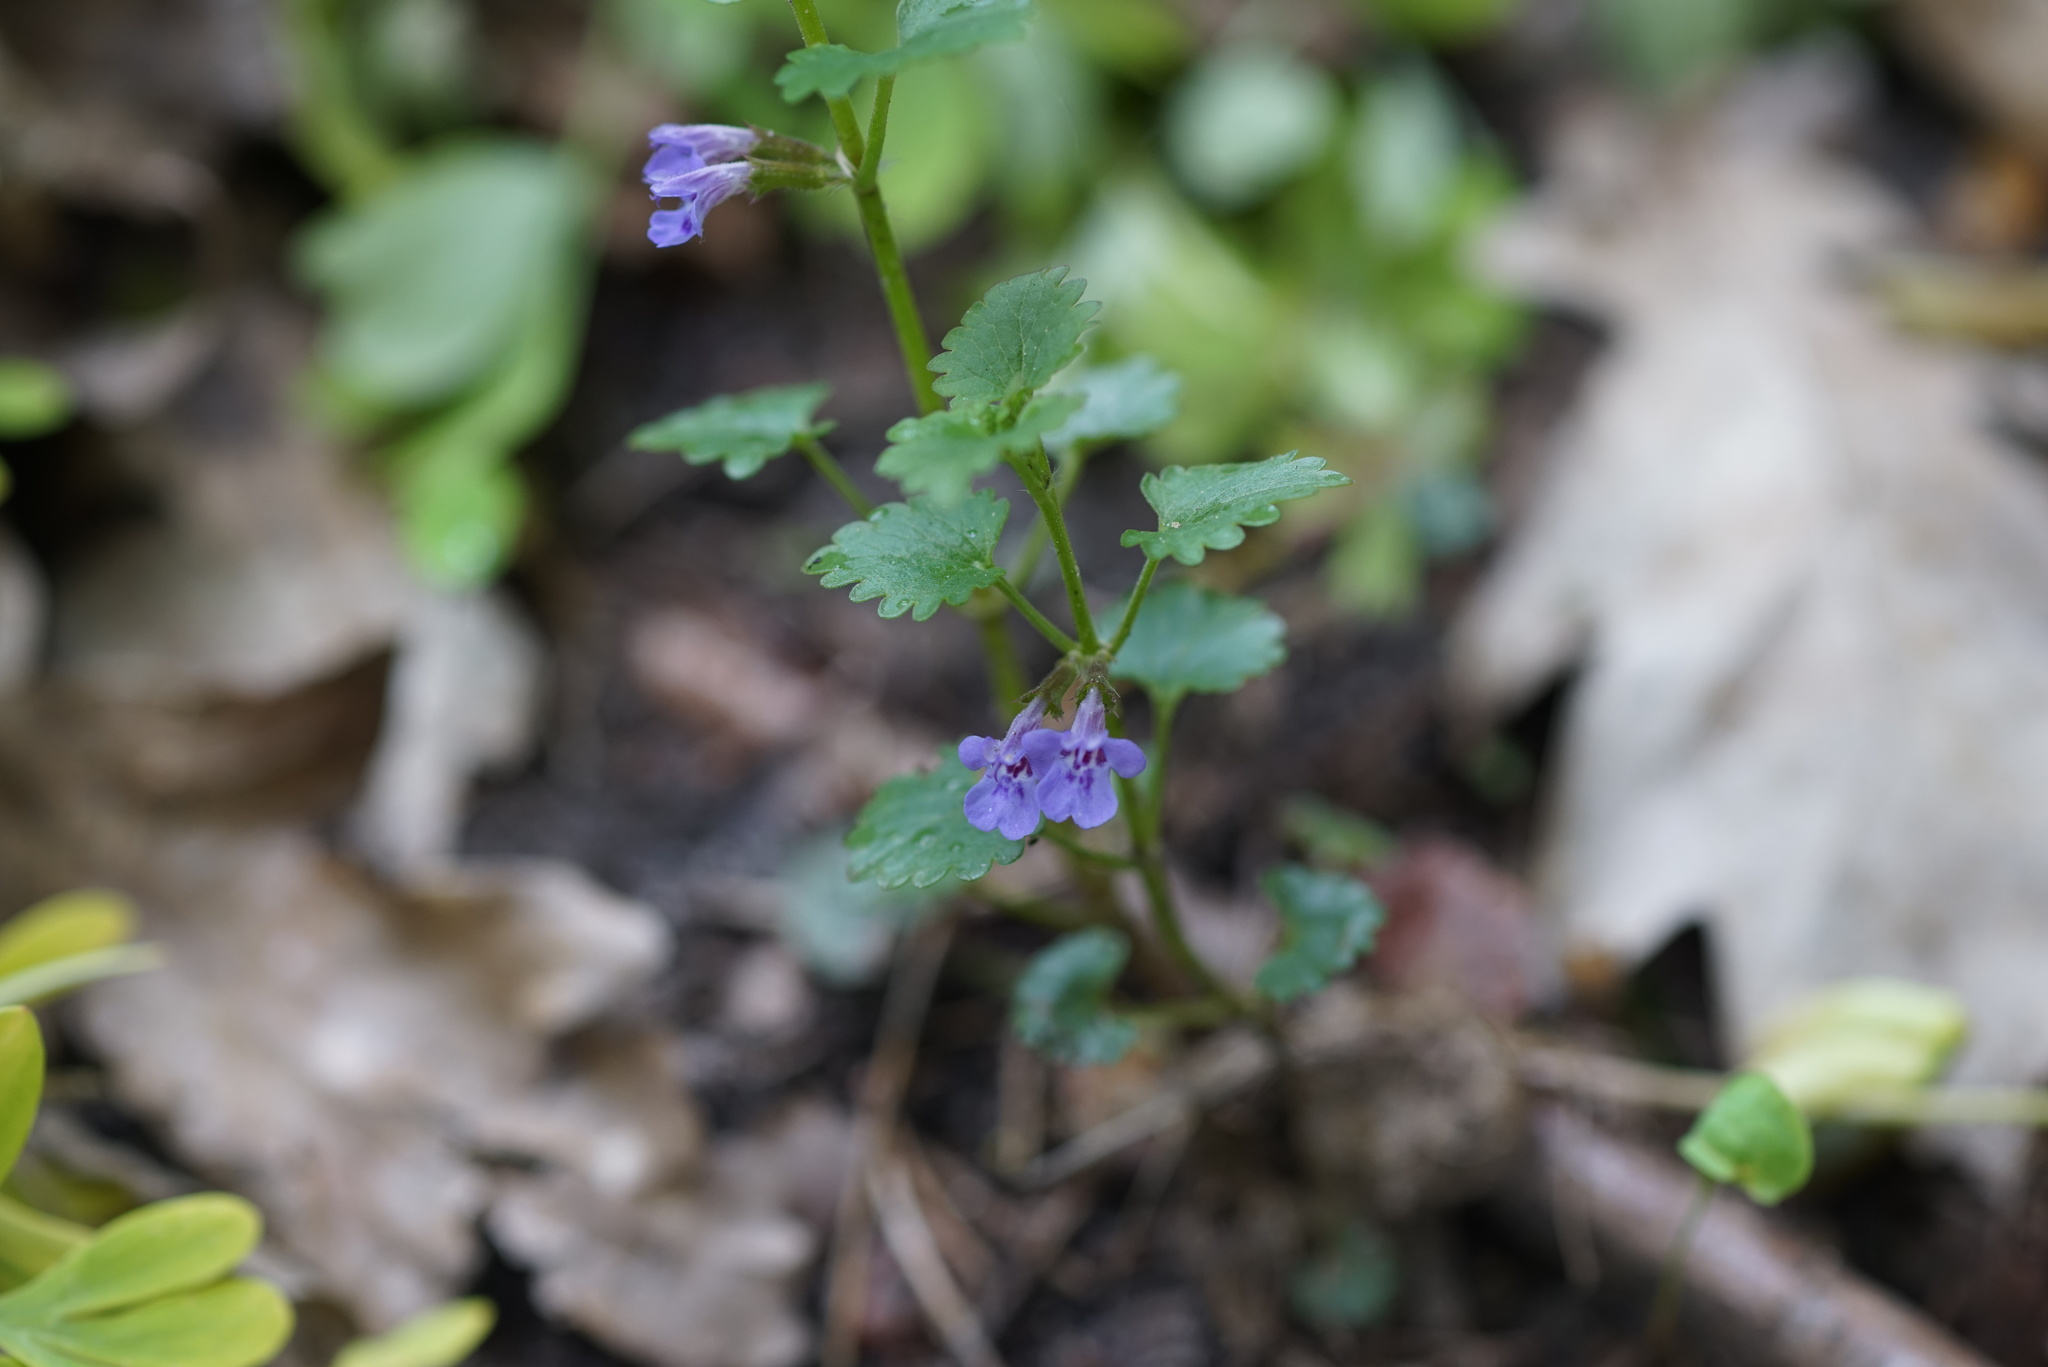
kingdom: Plantae
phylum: Tracheophyta
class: Magnoliopsida
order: Lamiales
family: Lamiaceae
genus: Glechoma
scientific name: Glechoma hederacea
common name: Ground ivy
